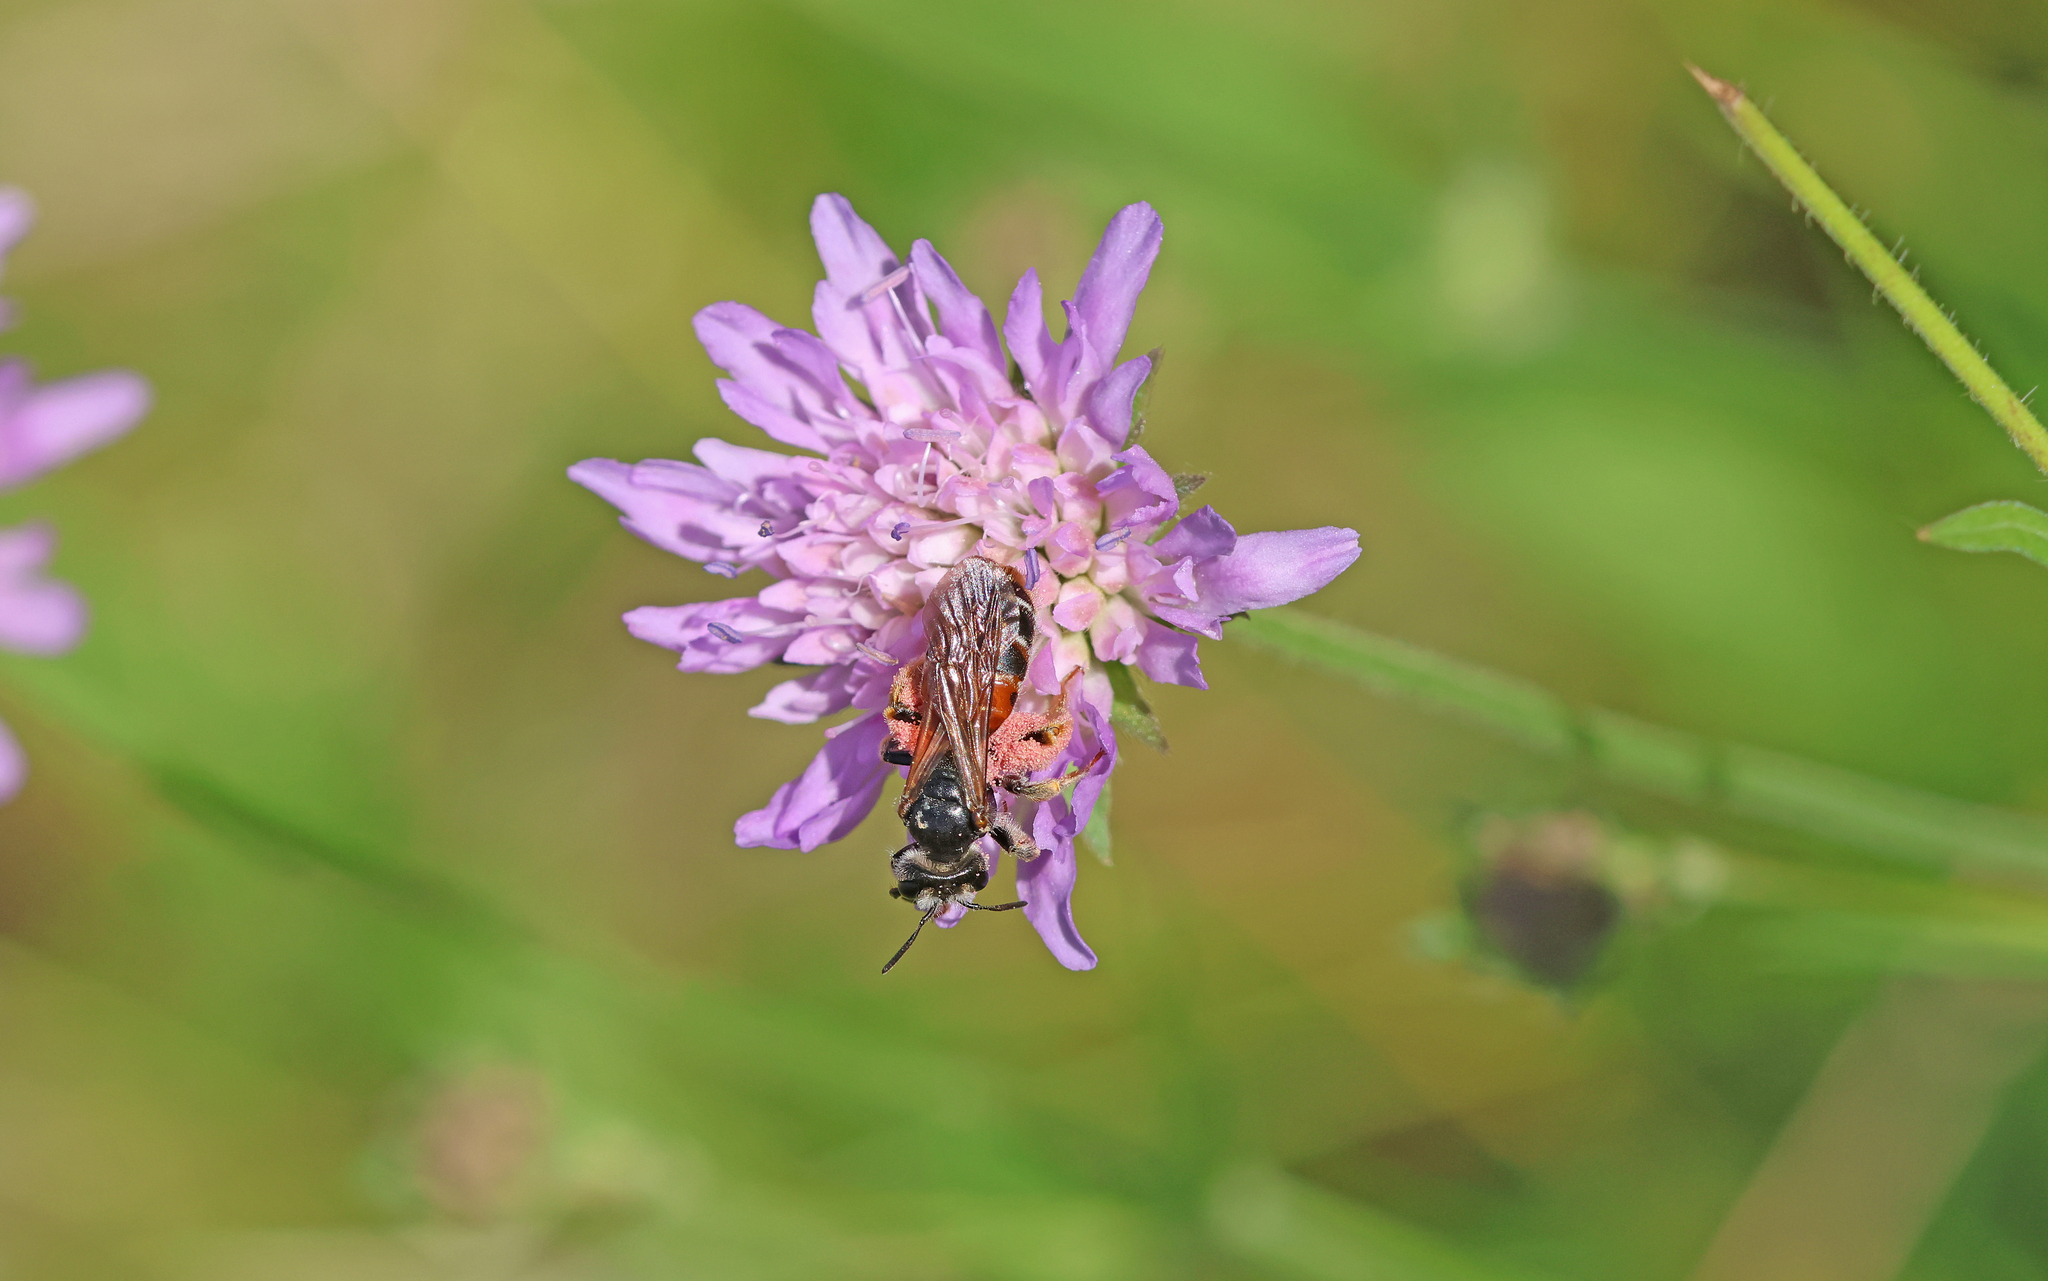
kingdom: Animalia
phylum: Arthropoda
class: Insecta
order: Hymenoptera
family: Andrenidae
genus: Andrena
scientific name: Andrena hattorfiana
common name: Large scabious mining bee
